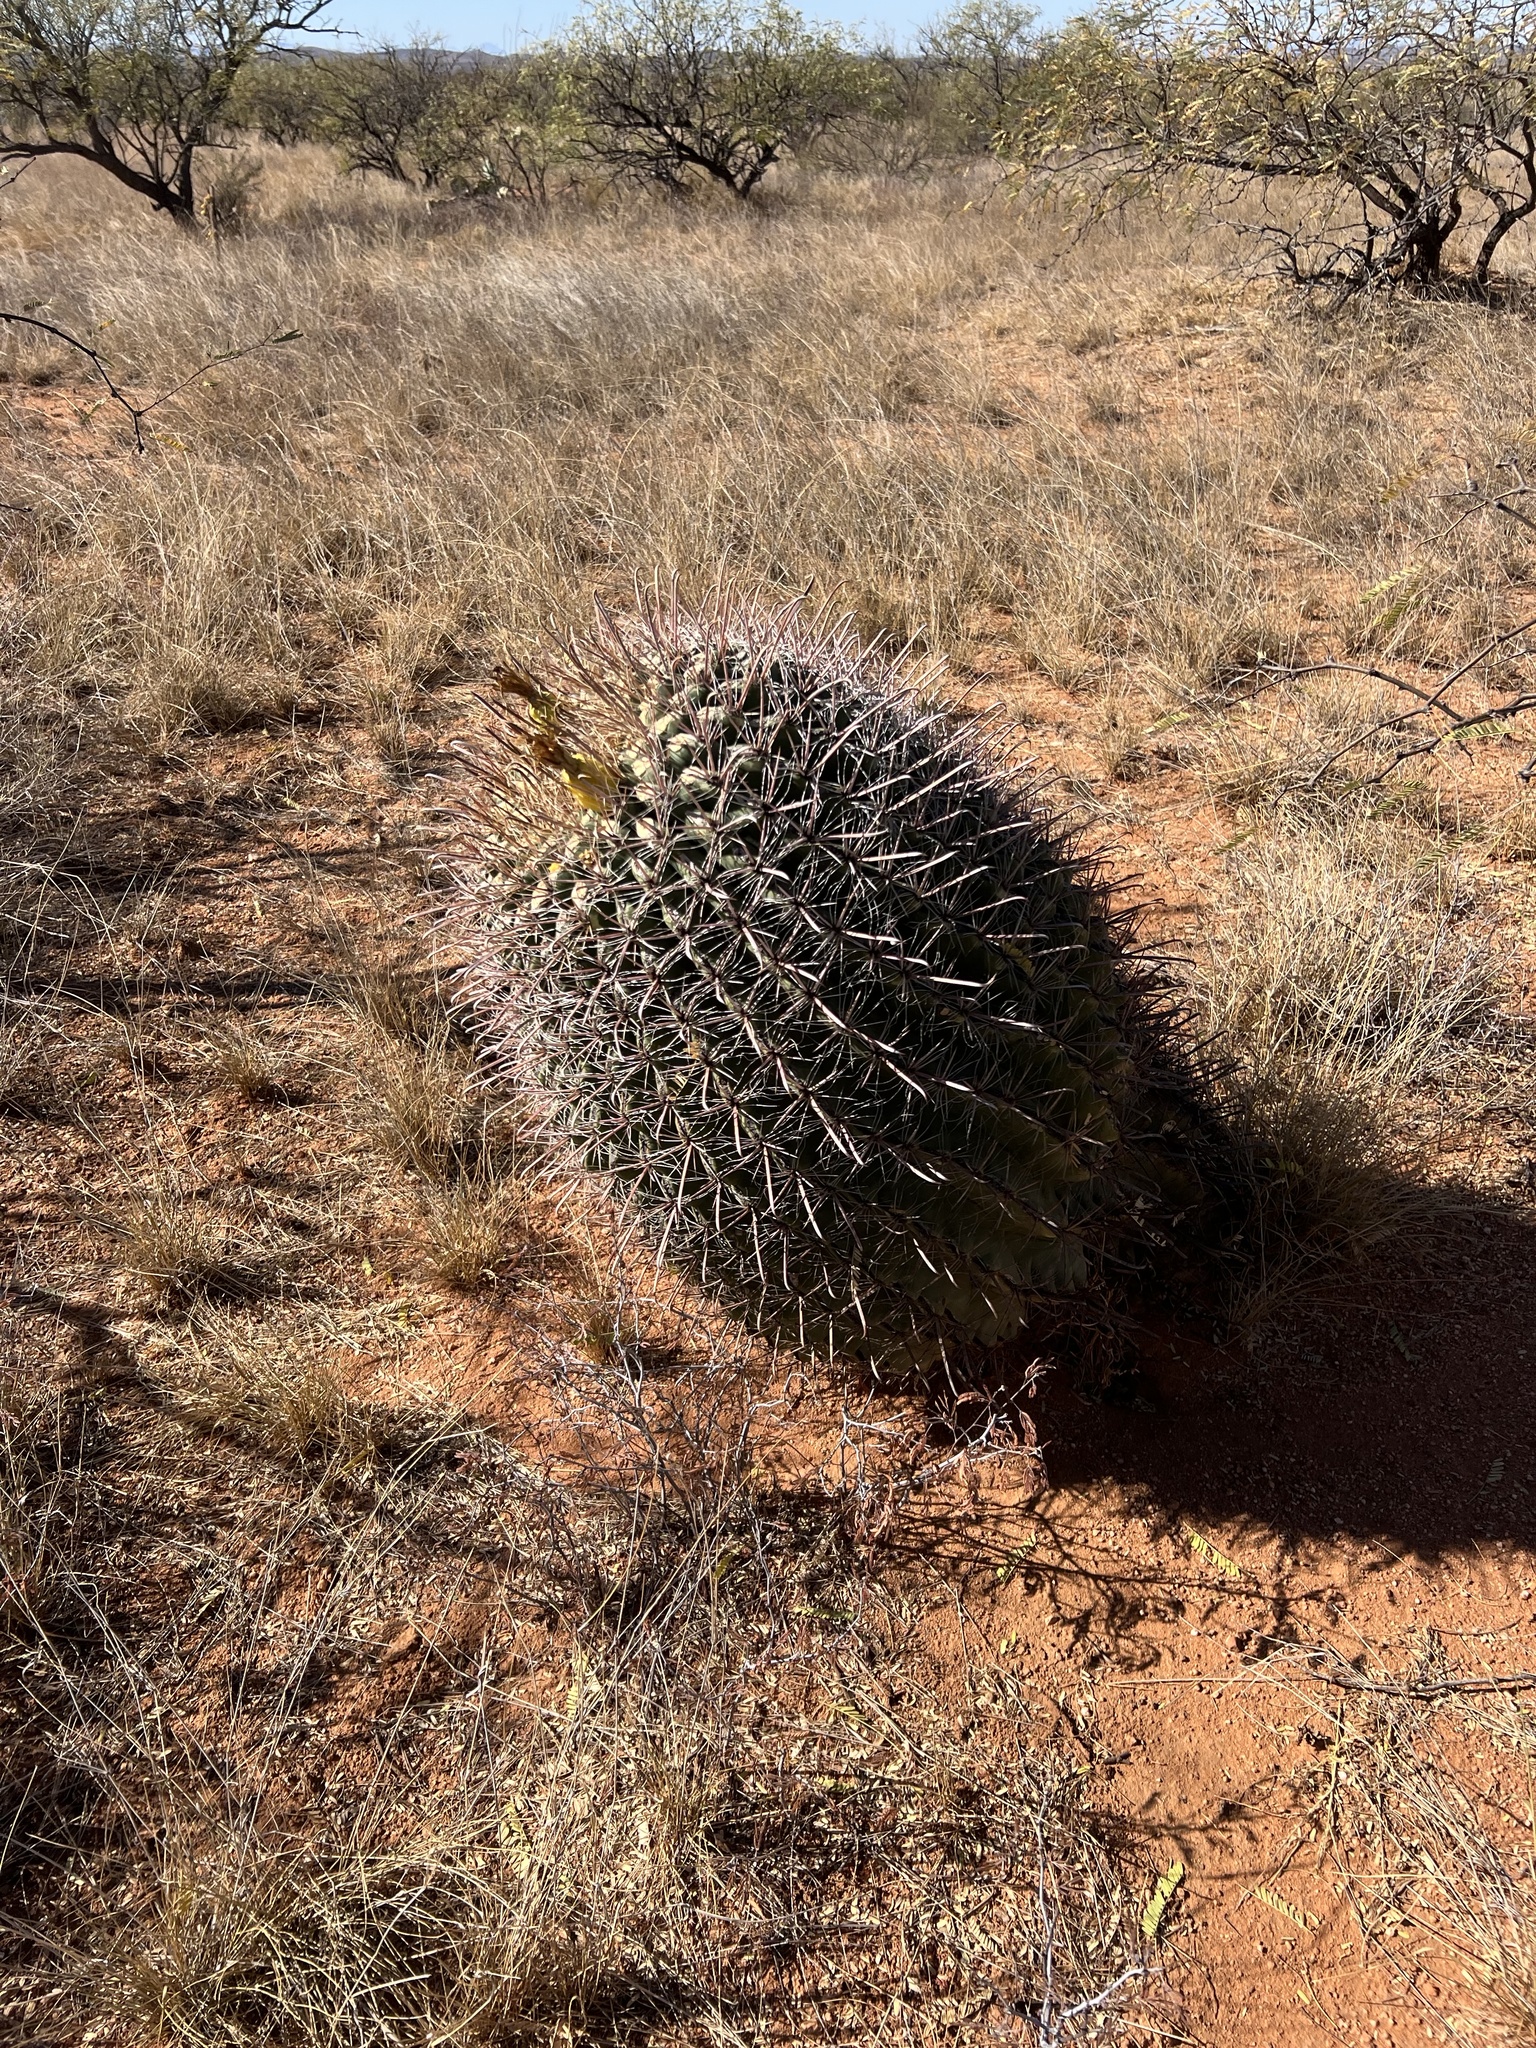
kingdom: Plantae
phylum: Tracheophyta
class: Magnoliopsida
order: Caryophyllales
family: Cactaceae
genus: Ferocactus
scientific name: Ferocactus wislizeni
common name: Candy barrel cactus
